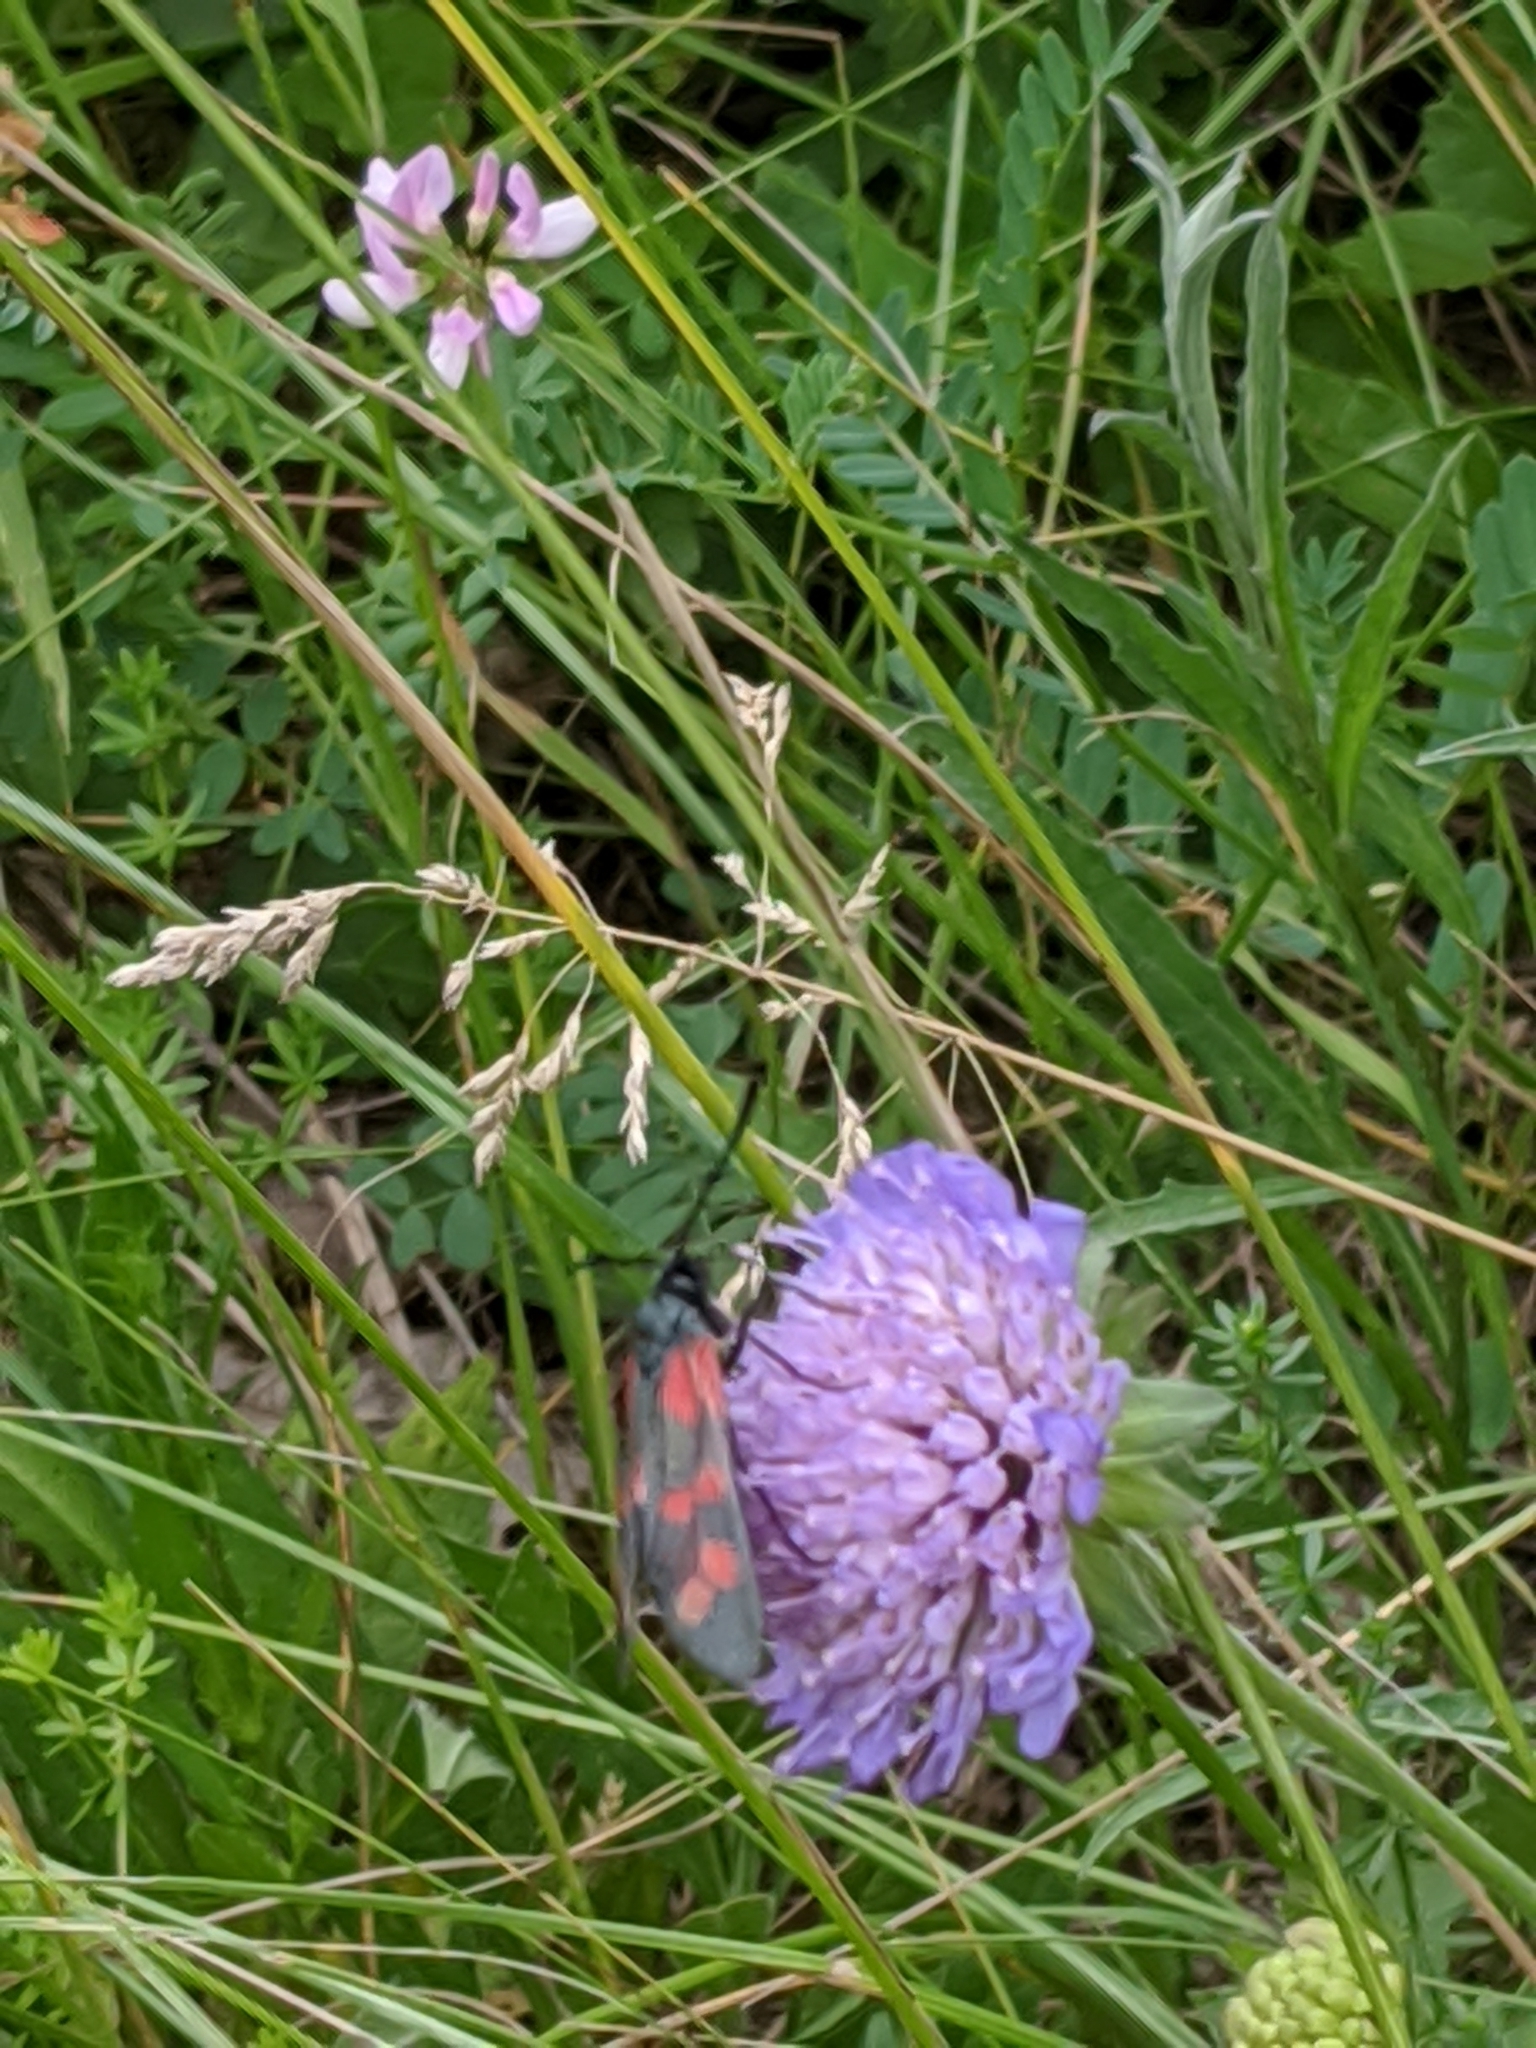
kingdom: Animalia
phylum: Arthropoda
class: Insecta
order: Lepidoptera
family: Zygaenidae
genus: Zygaena
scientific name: Zygaena filipendulae
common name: Six-spot burnet
